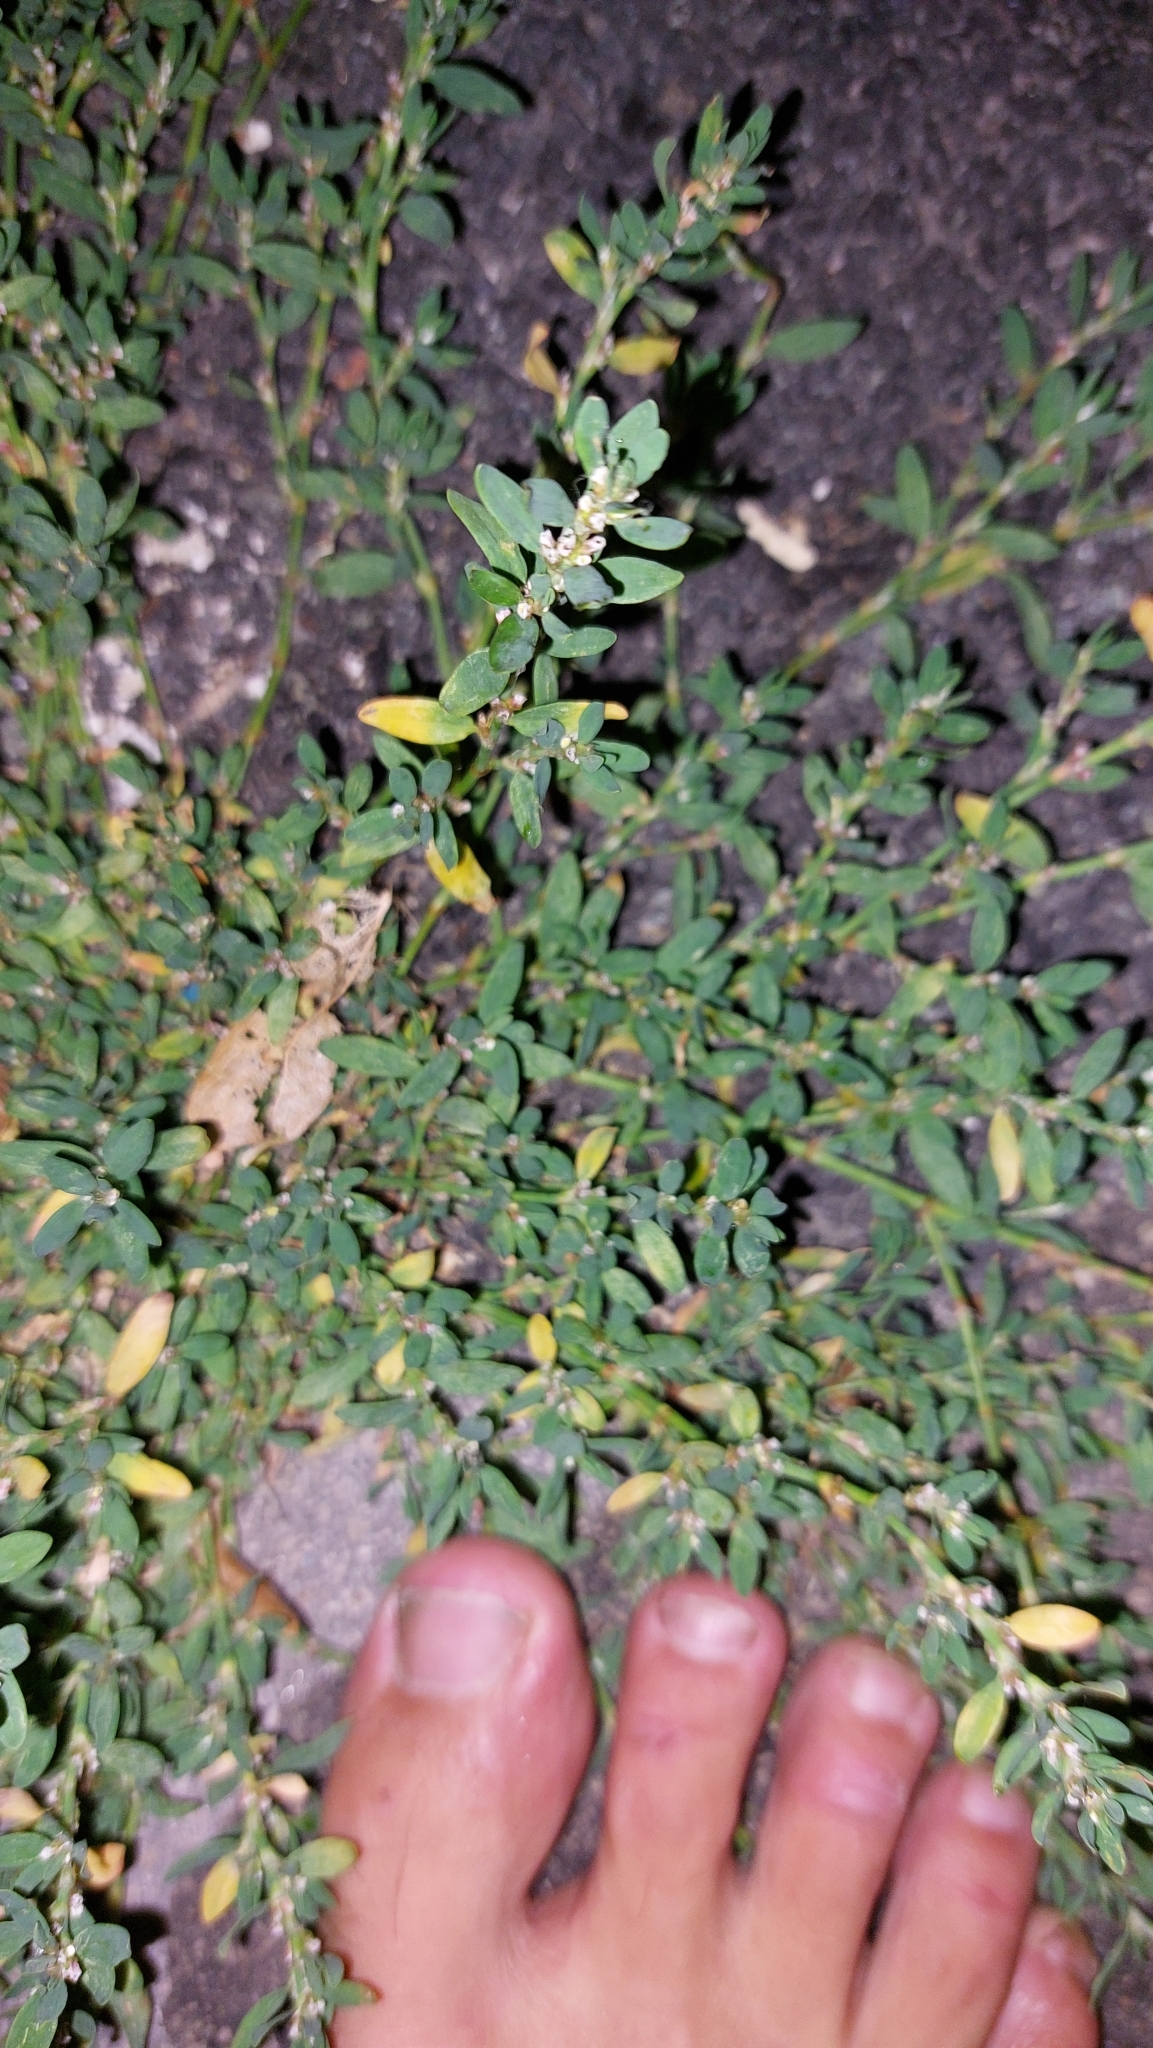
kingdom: Plantae
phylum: Tracheophyta
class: Magnoliopsida
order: Caryophyllales
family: Polygonaceae
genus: Polygonum
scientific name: Polygonum aviculare
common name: Prostrate knotweed
